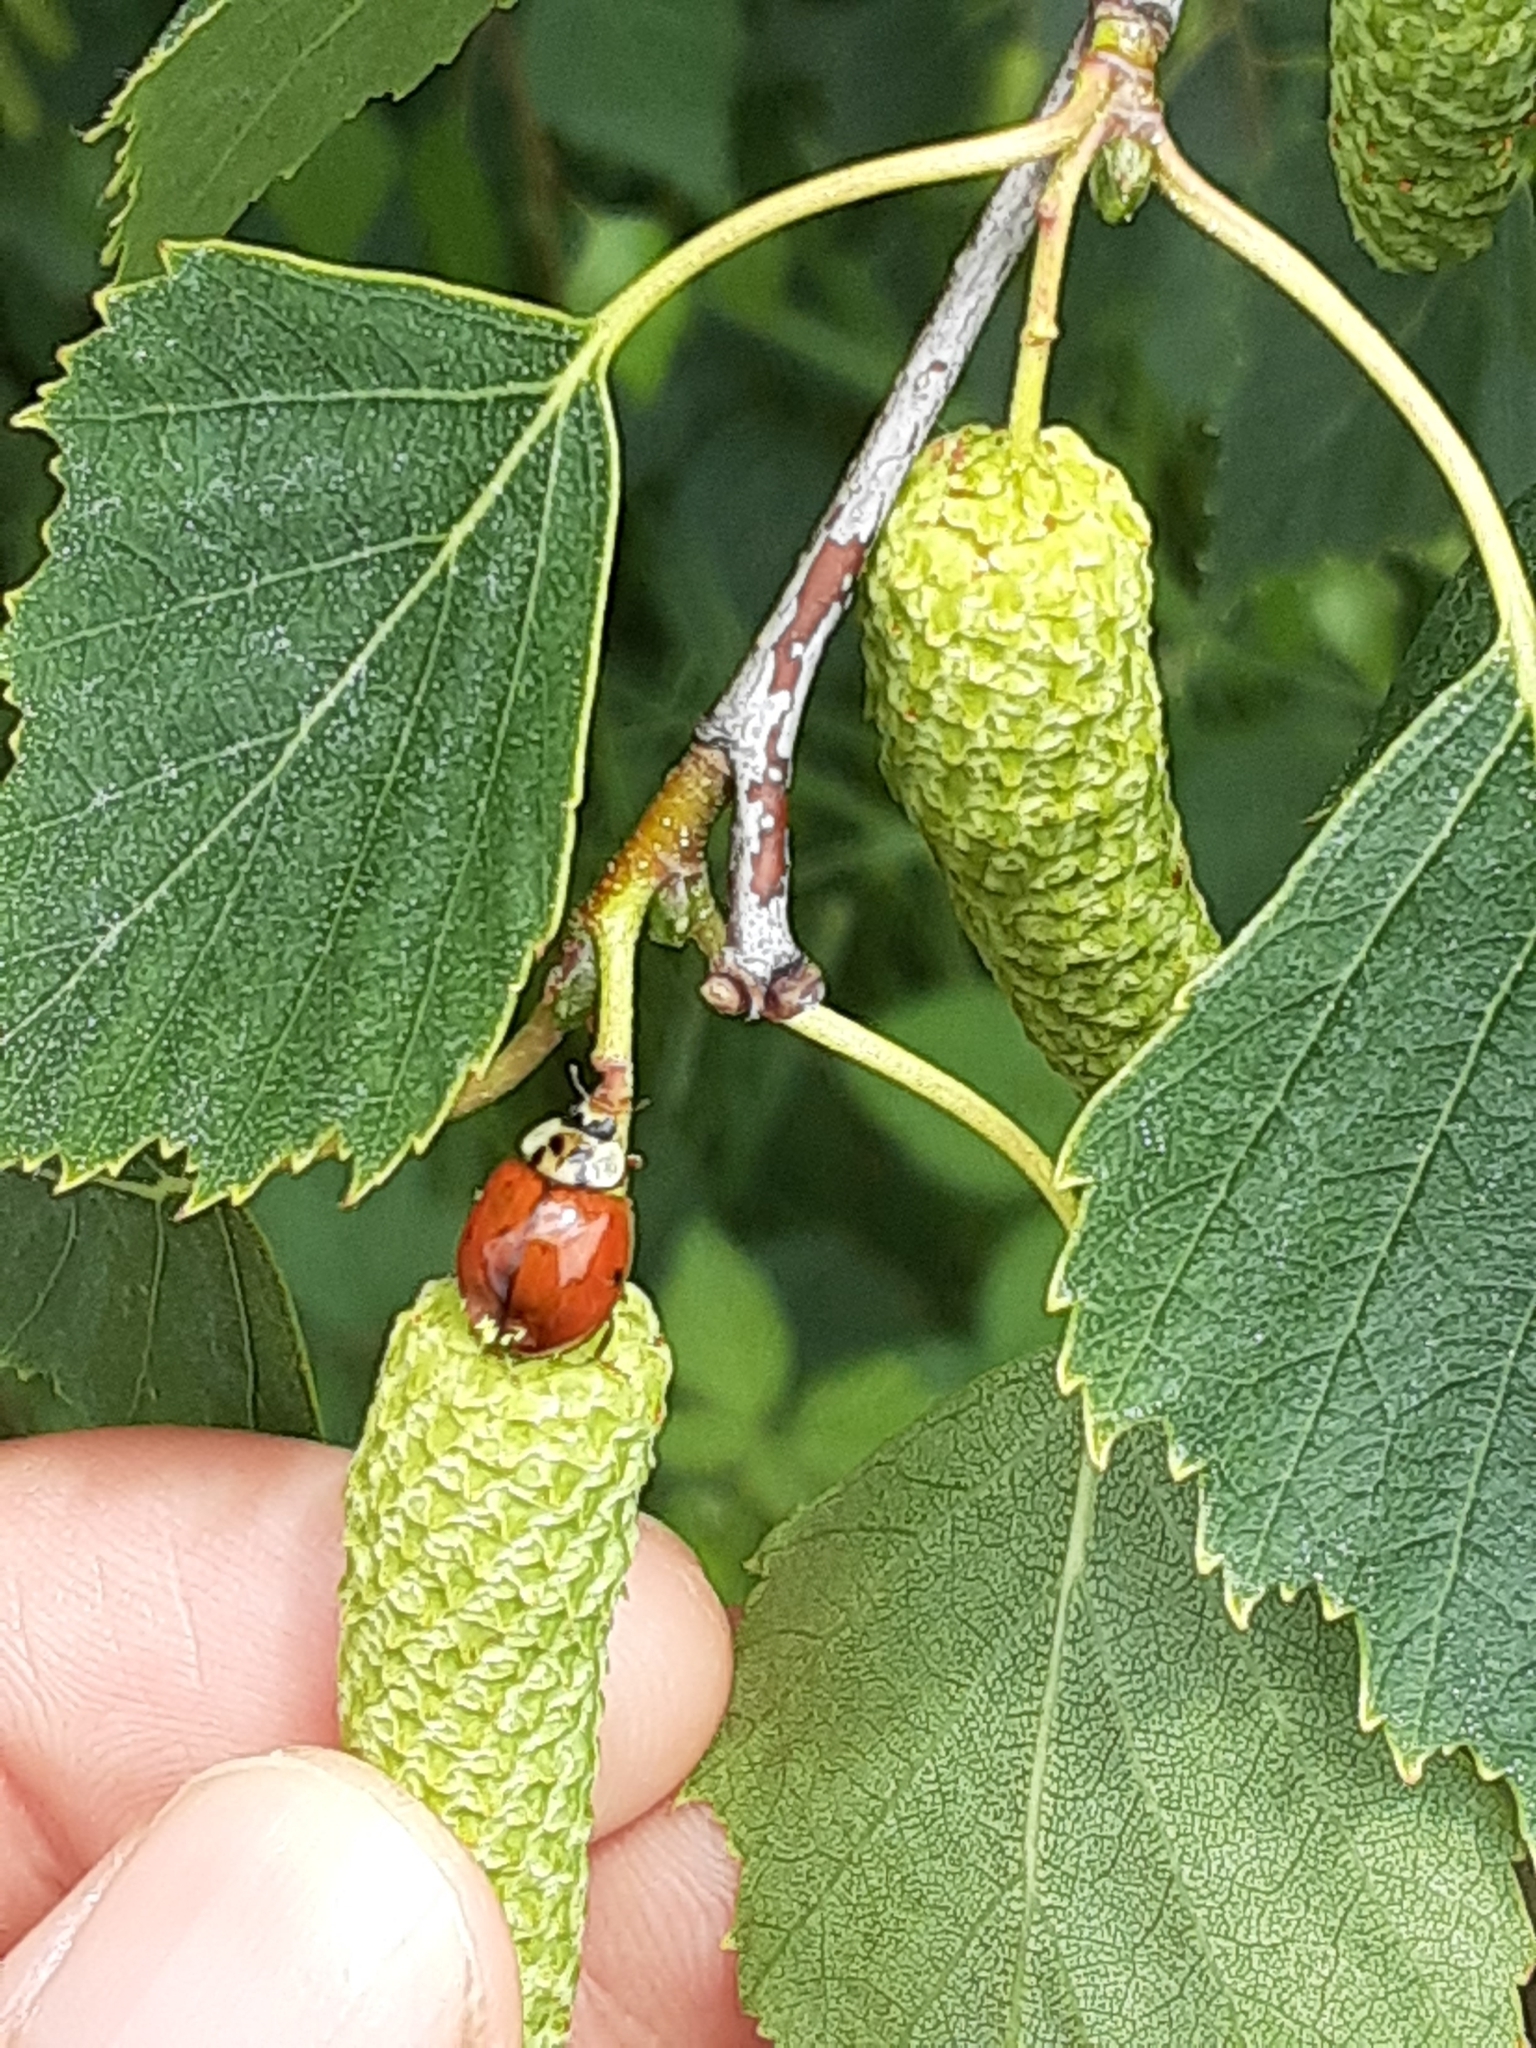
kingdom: Animalia
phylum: Arthropoda
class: Insecta
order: Coleoptera
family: Coccinellidae
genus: Harmonia
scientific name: Harmonia axyridis
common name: Harlequin ladybird
